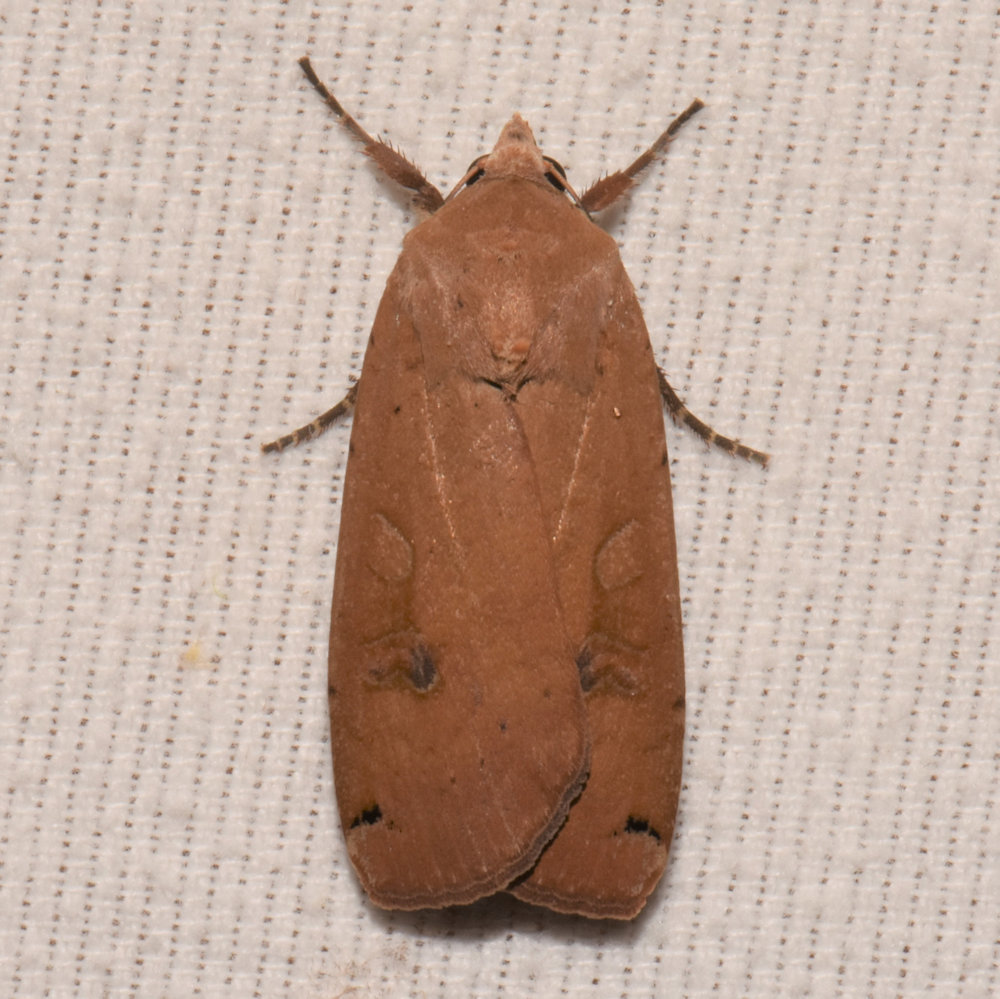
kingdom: Animalia
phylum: Arthropoda
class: Insecta
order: Lepidoptera
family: Noctuidae
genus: Noctua
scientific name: Noctua pronuba
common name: Large yellow underwing
